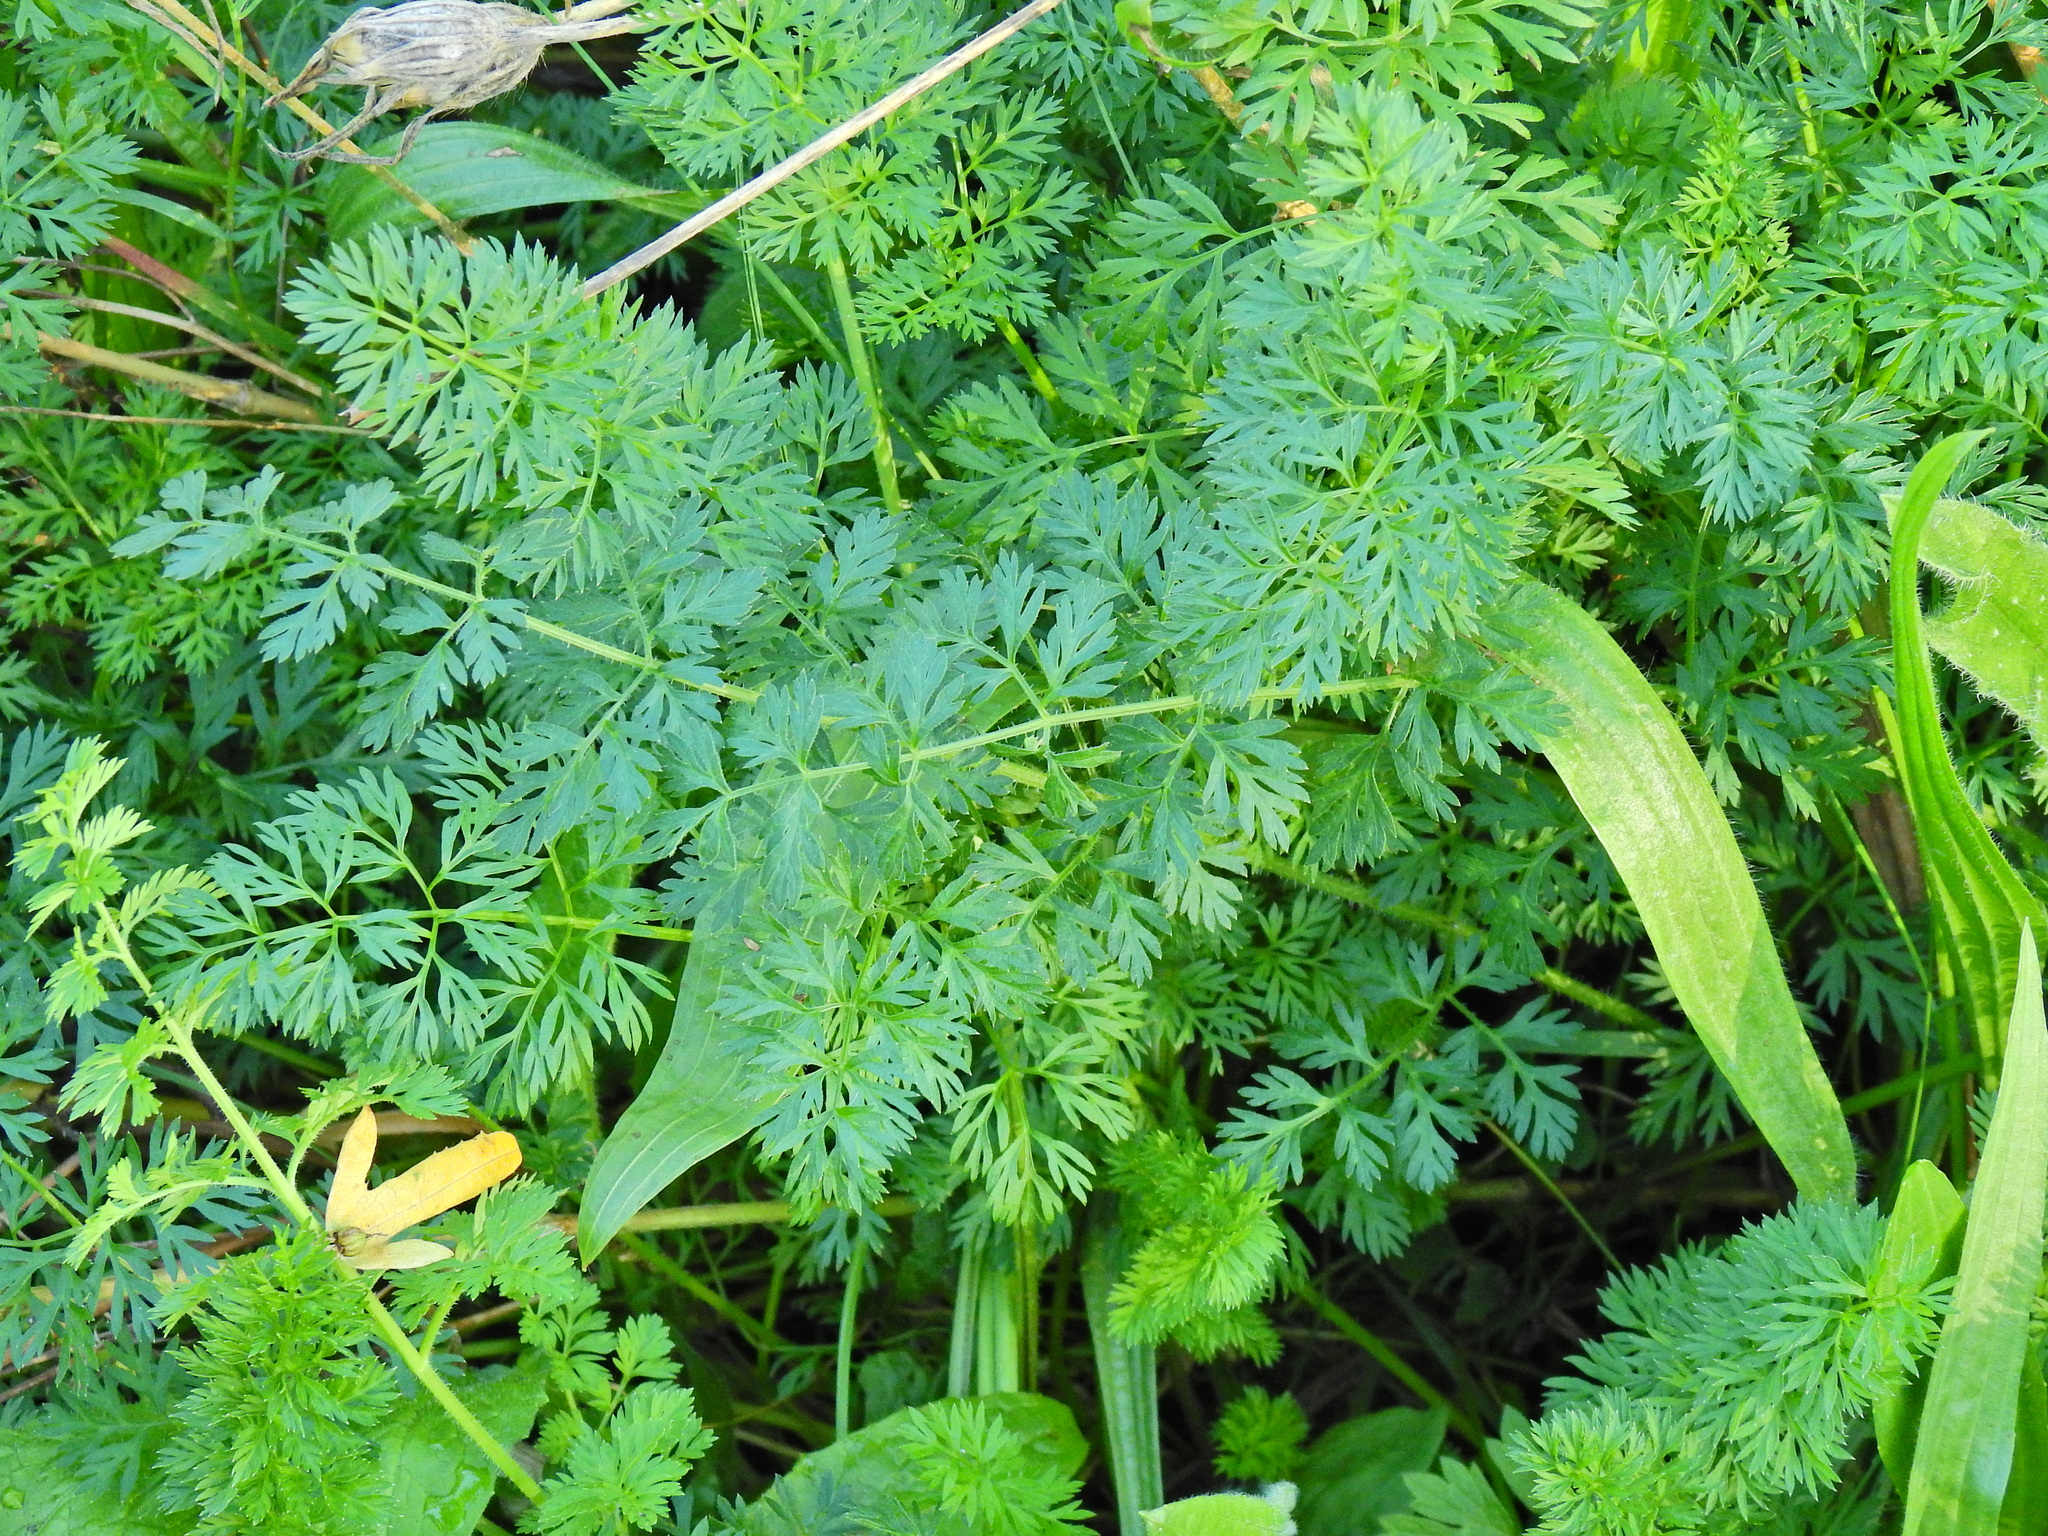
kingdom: Plantae
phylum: Tracheophyta
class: Magnoliopsida
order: Apiales
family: Apiaceae
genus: Daucus
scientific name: Daucus carota
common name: Wild carrot
